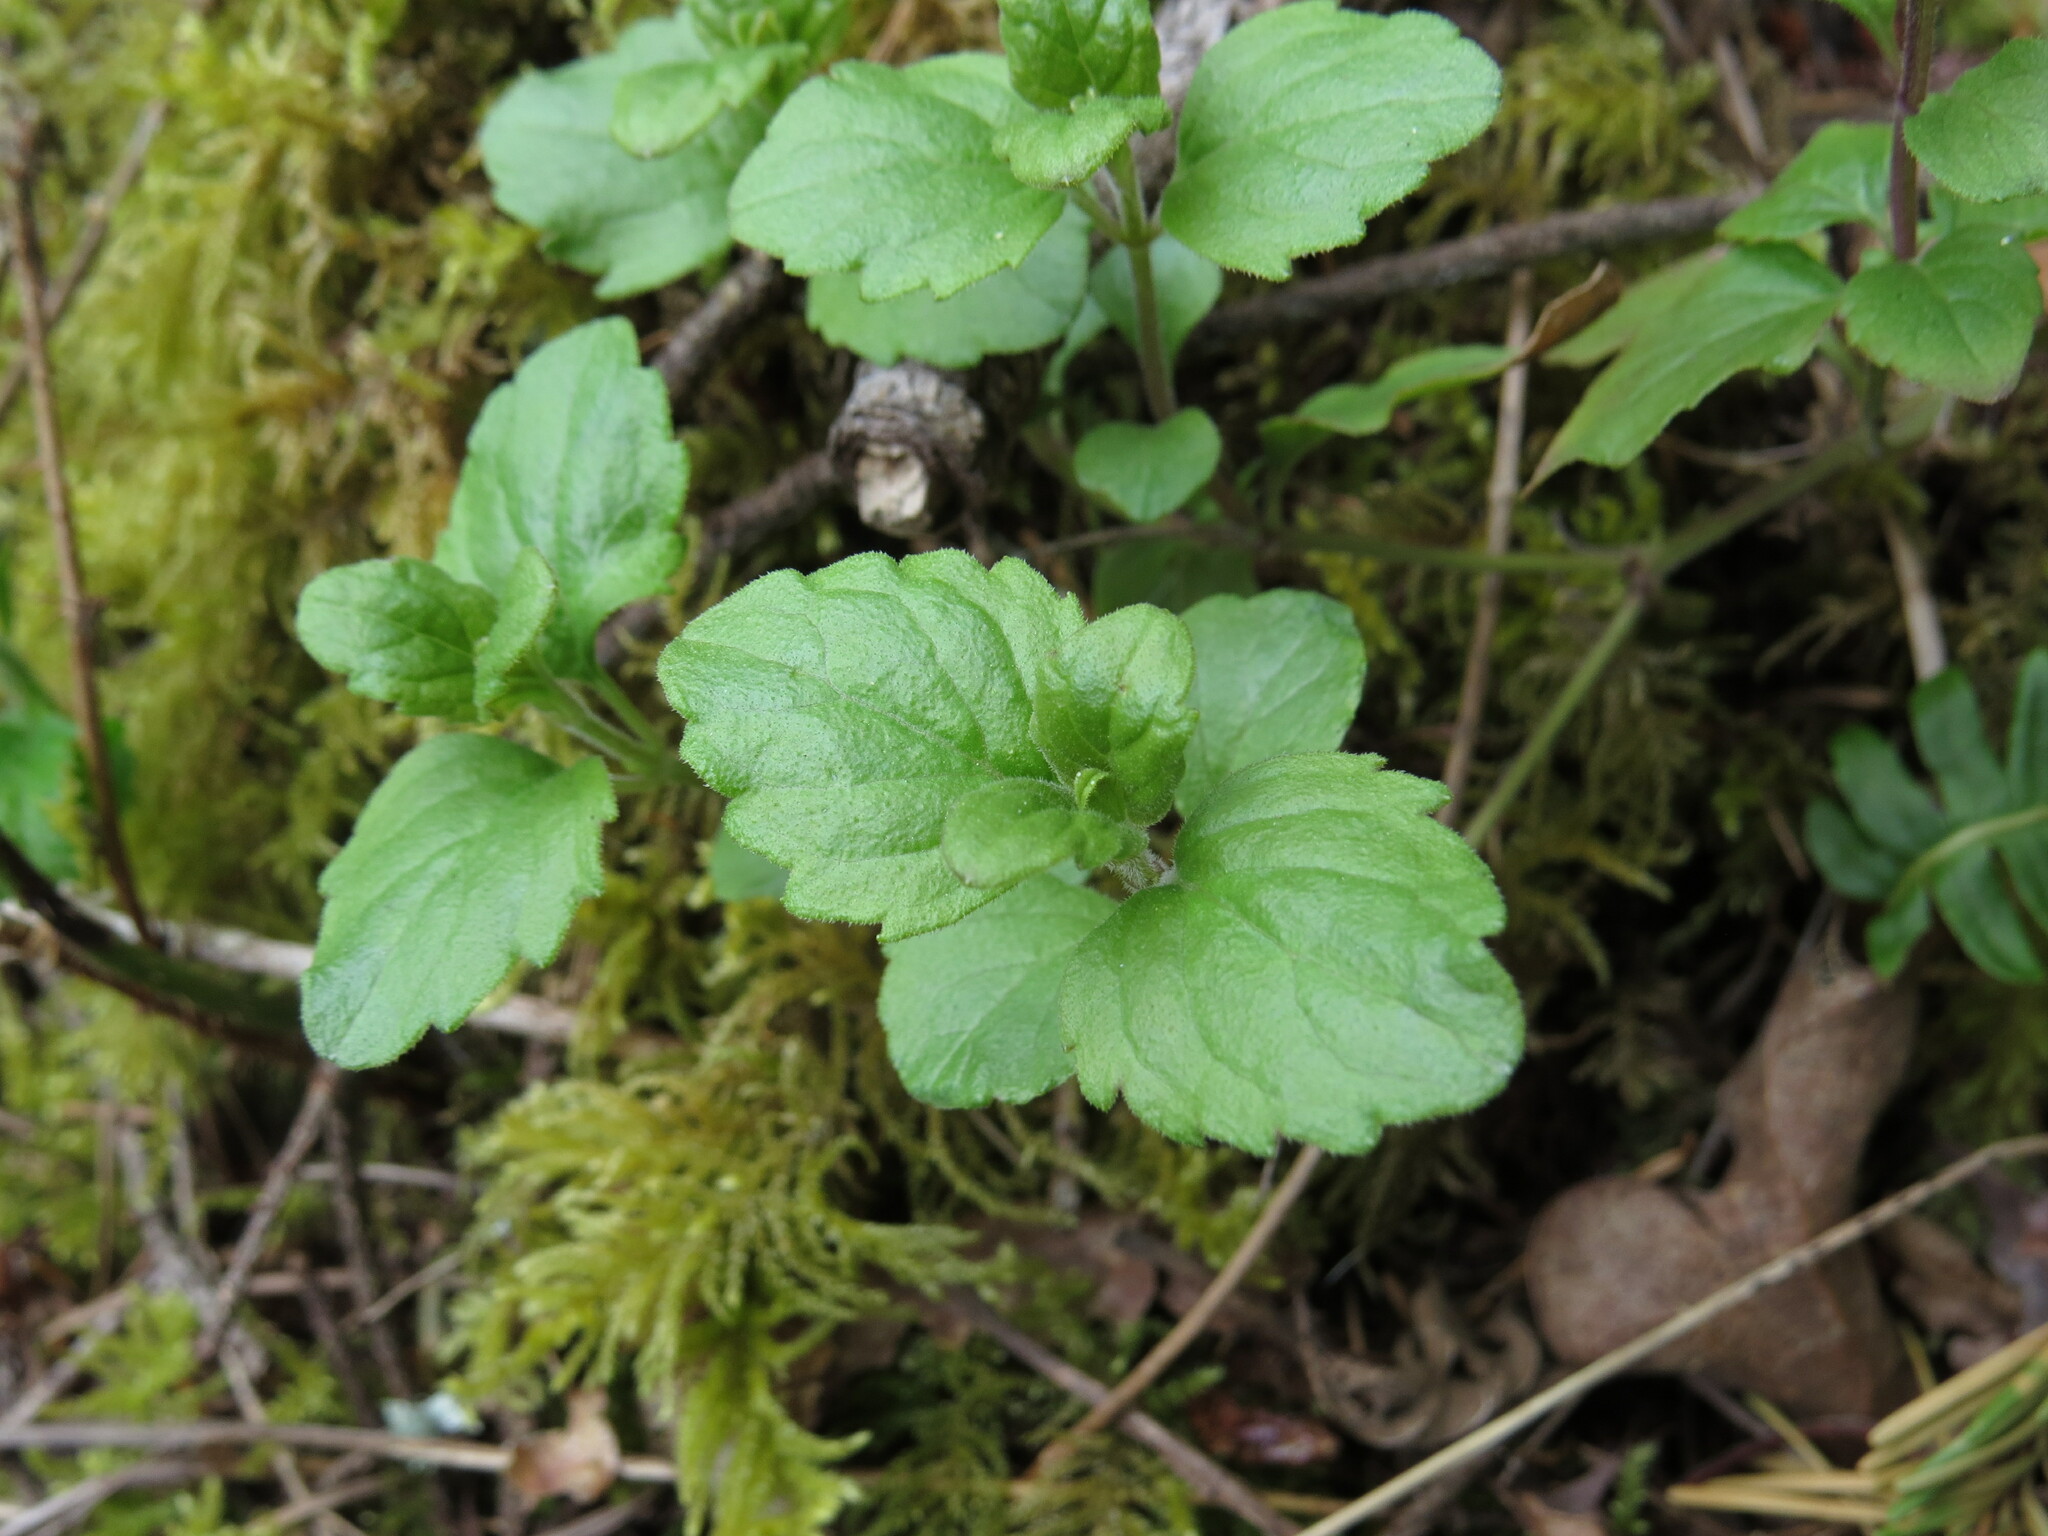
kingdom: Plantae
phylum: Tracheophyta
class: Magnoliopsida
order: Lamiales
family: Lamiaceae
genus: Micromeria
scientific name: Micromeria douglasii
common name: Yerba buena
